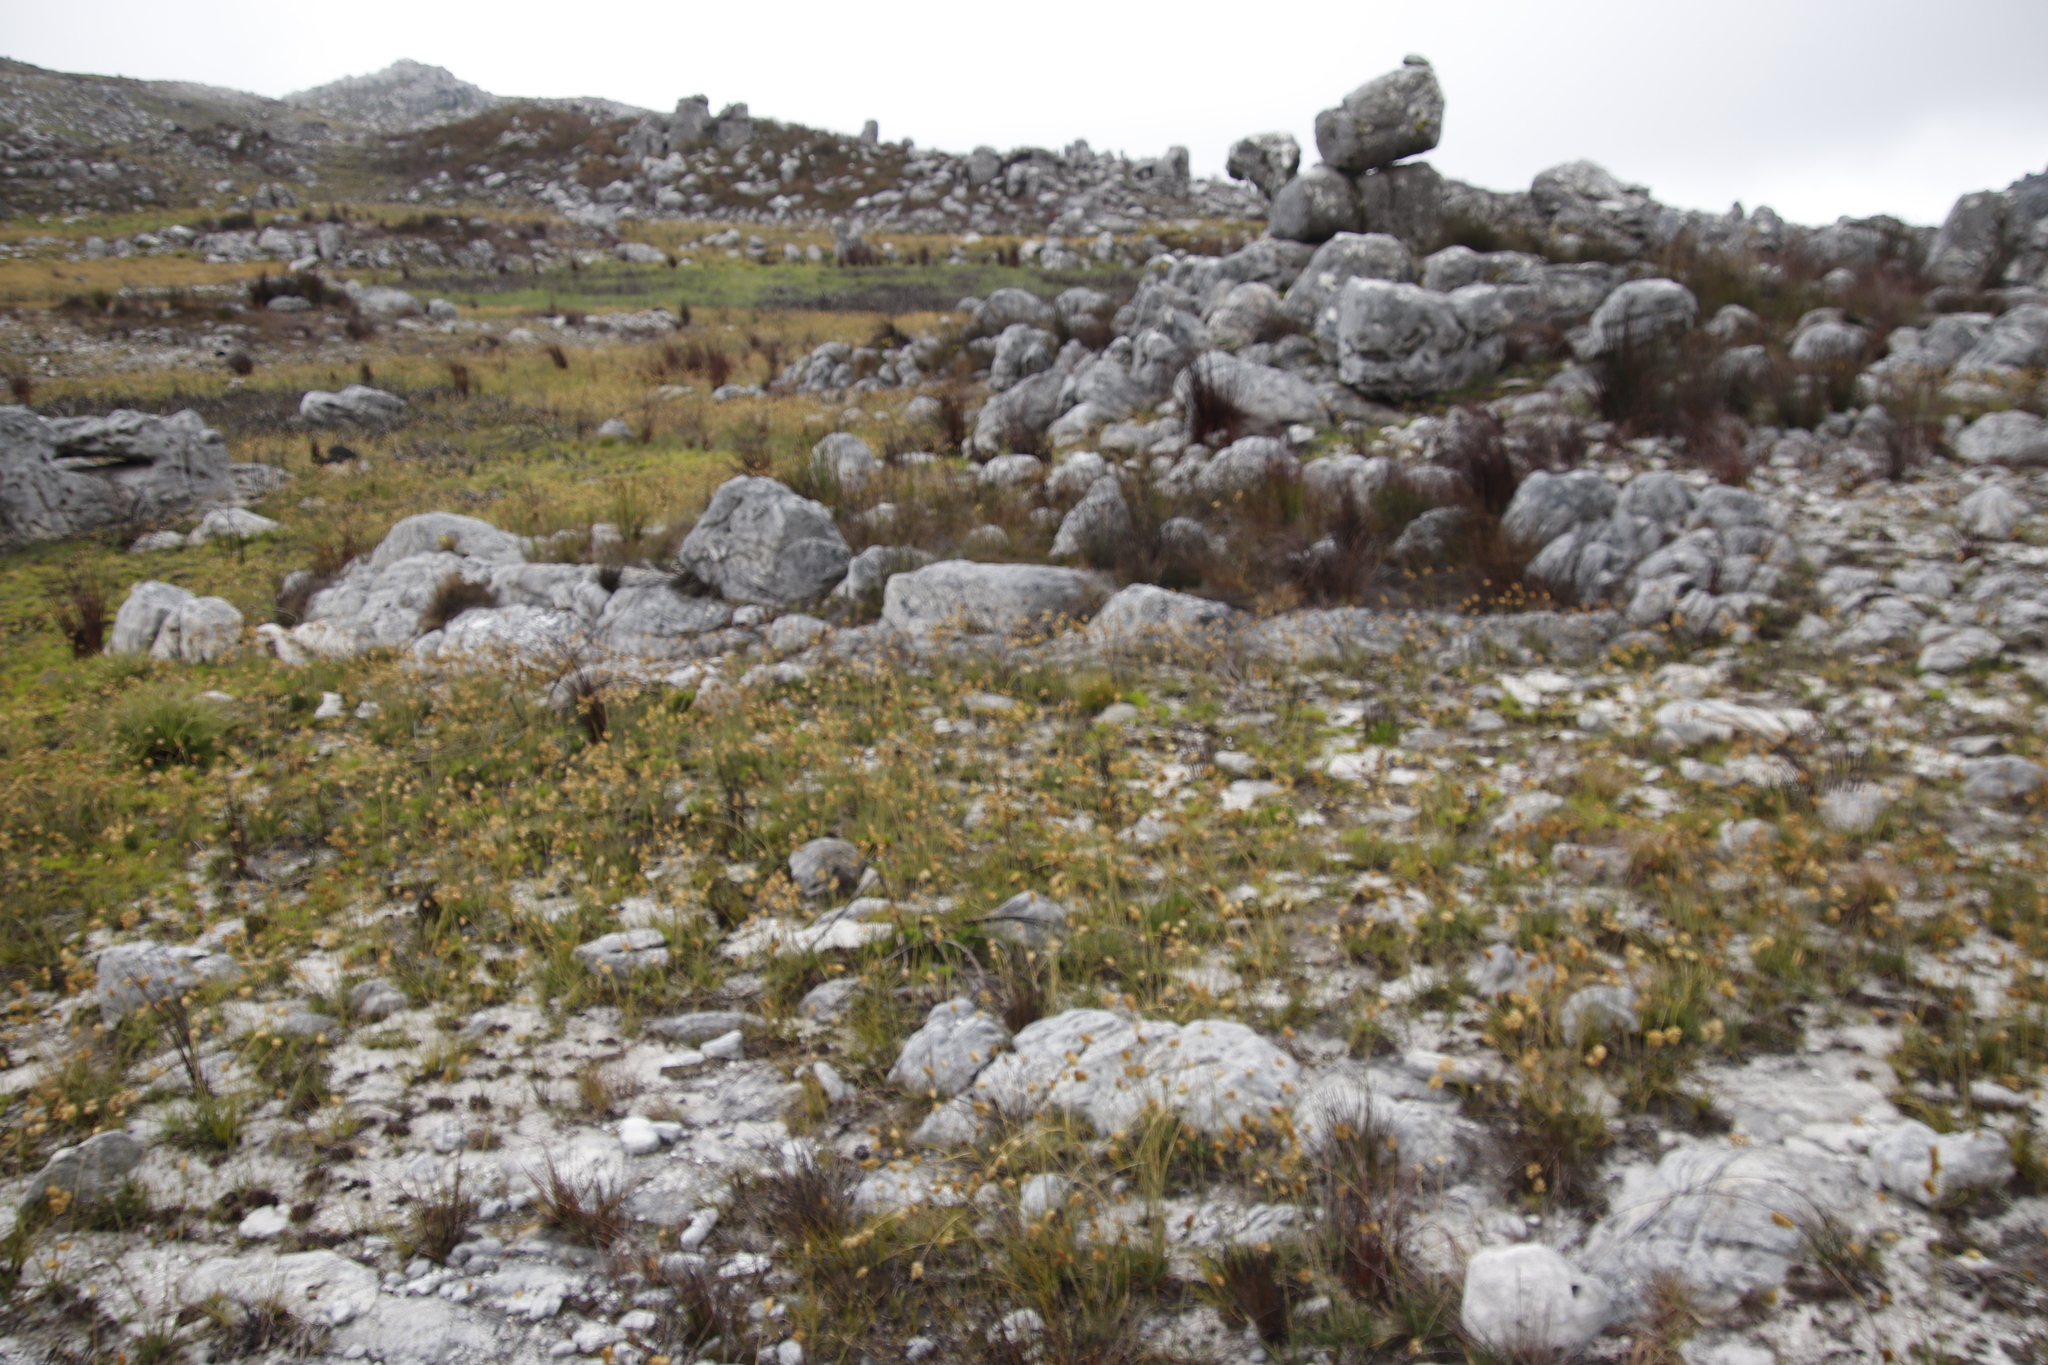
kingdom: Plantae
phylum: Tracheophyta
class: Liliopsida
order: Poales
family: Poaceae
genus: Geochloa
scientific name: Geochloa rufa
